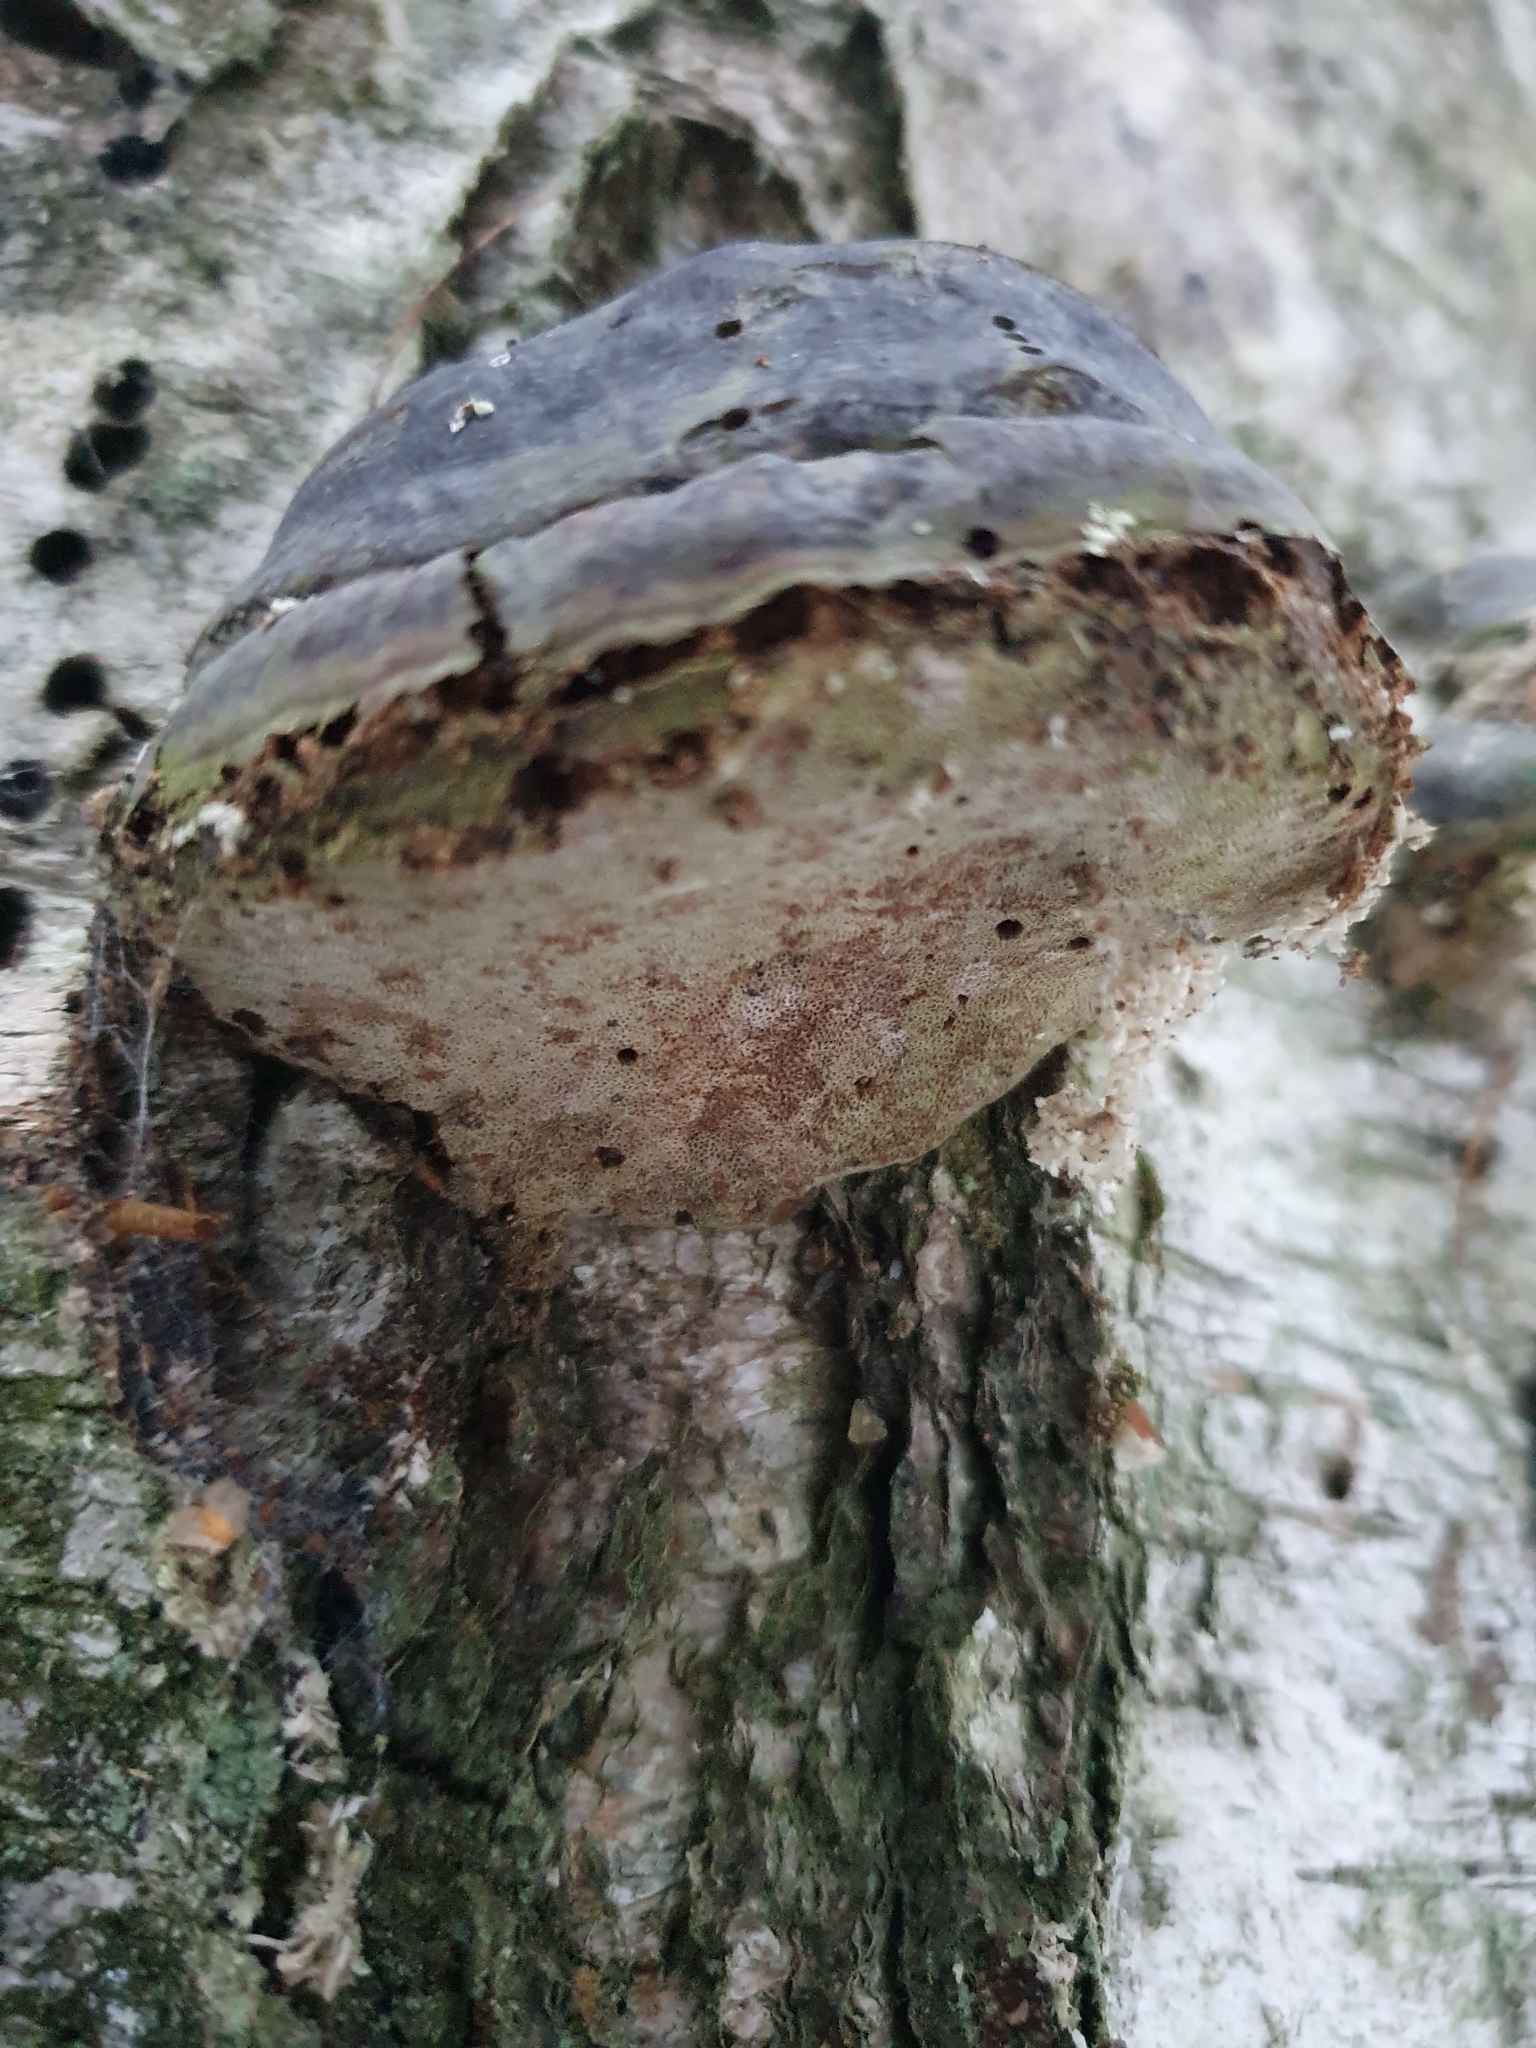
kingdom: Fungi
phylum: Basidiomycota
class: Agaricomycetes
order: Polyporales
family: Polyporaceae
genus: Fomes
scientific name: Fomes fomentarius
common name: Hoof fungus
